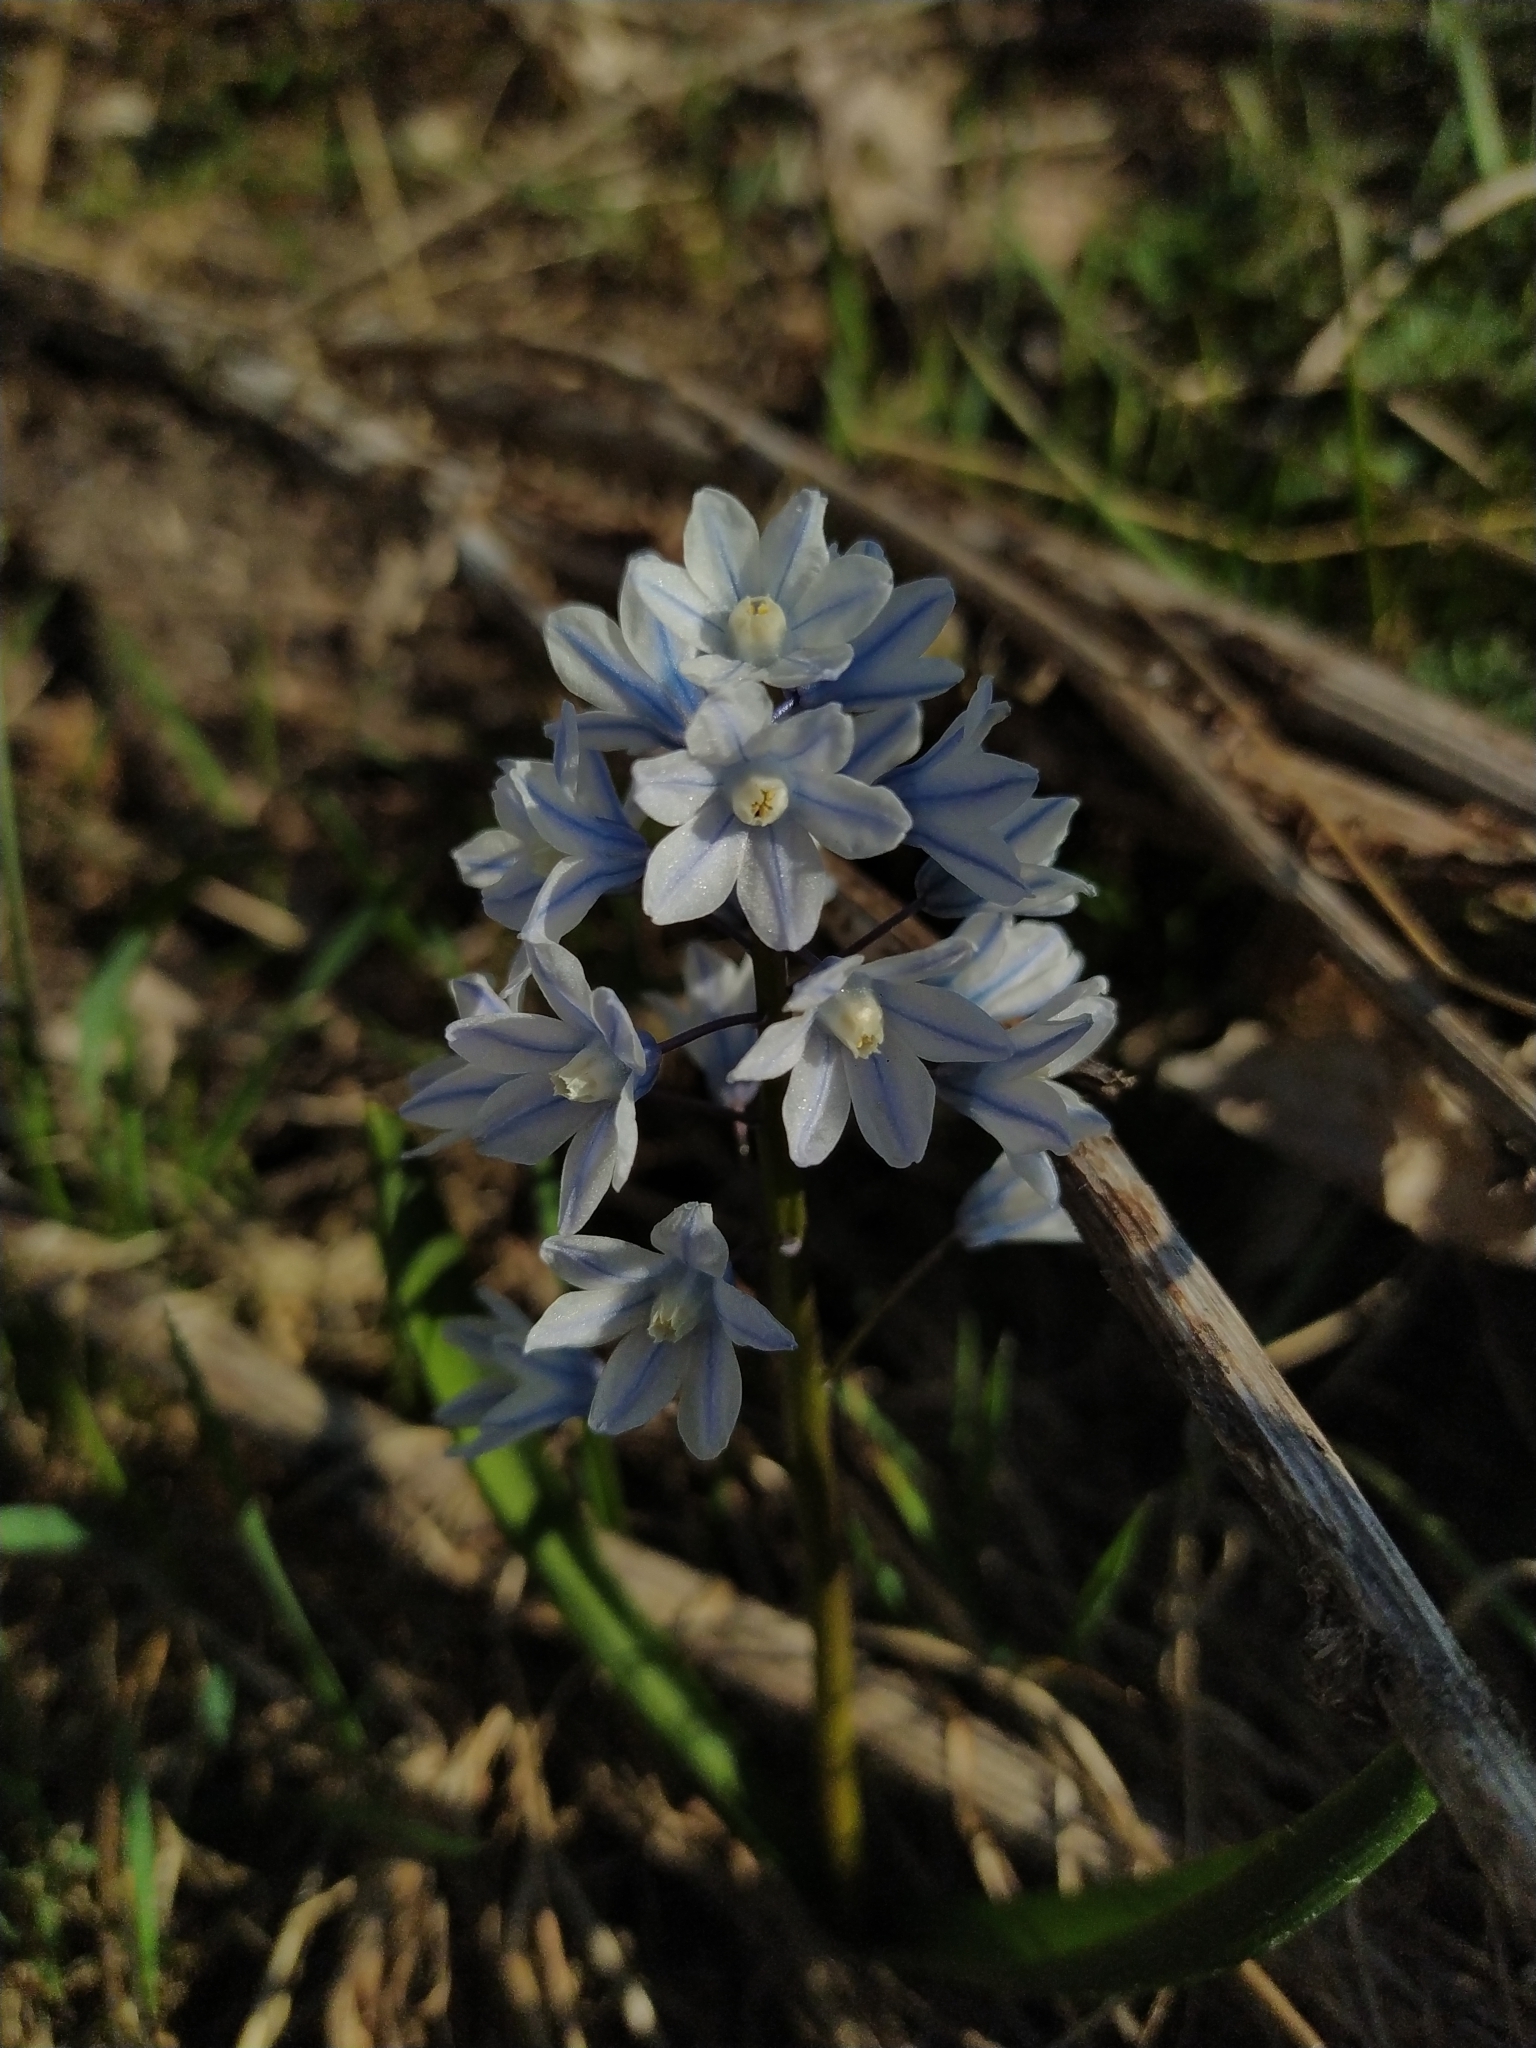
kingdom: Plantae
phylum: Tracheophyta
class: Liliopsida
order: Asparagales
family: Asparagaceae
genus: Puschkinia
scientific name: Puschkinia scilloides
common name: Striped squill
